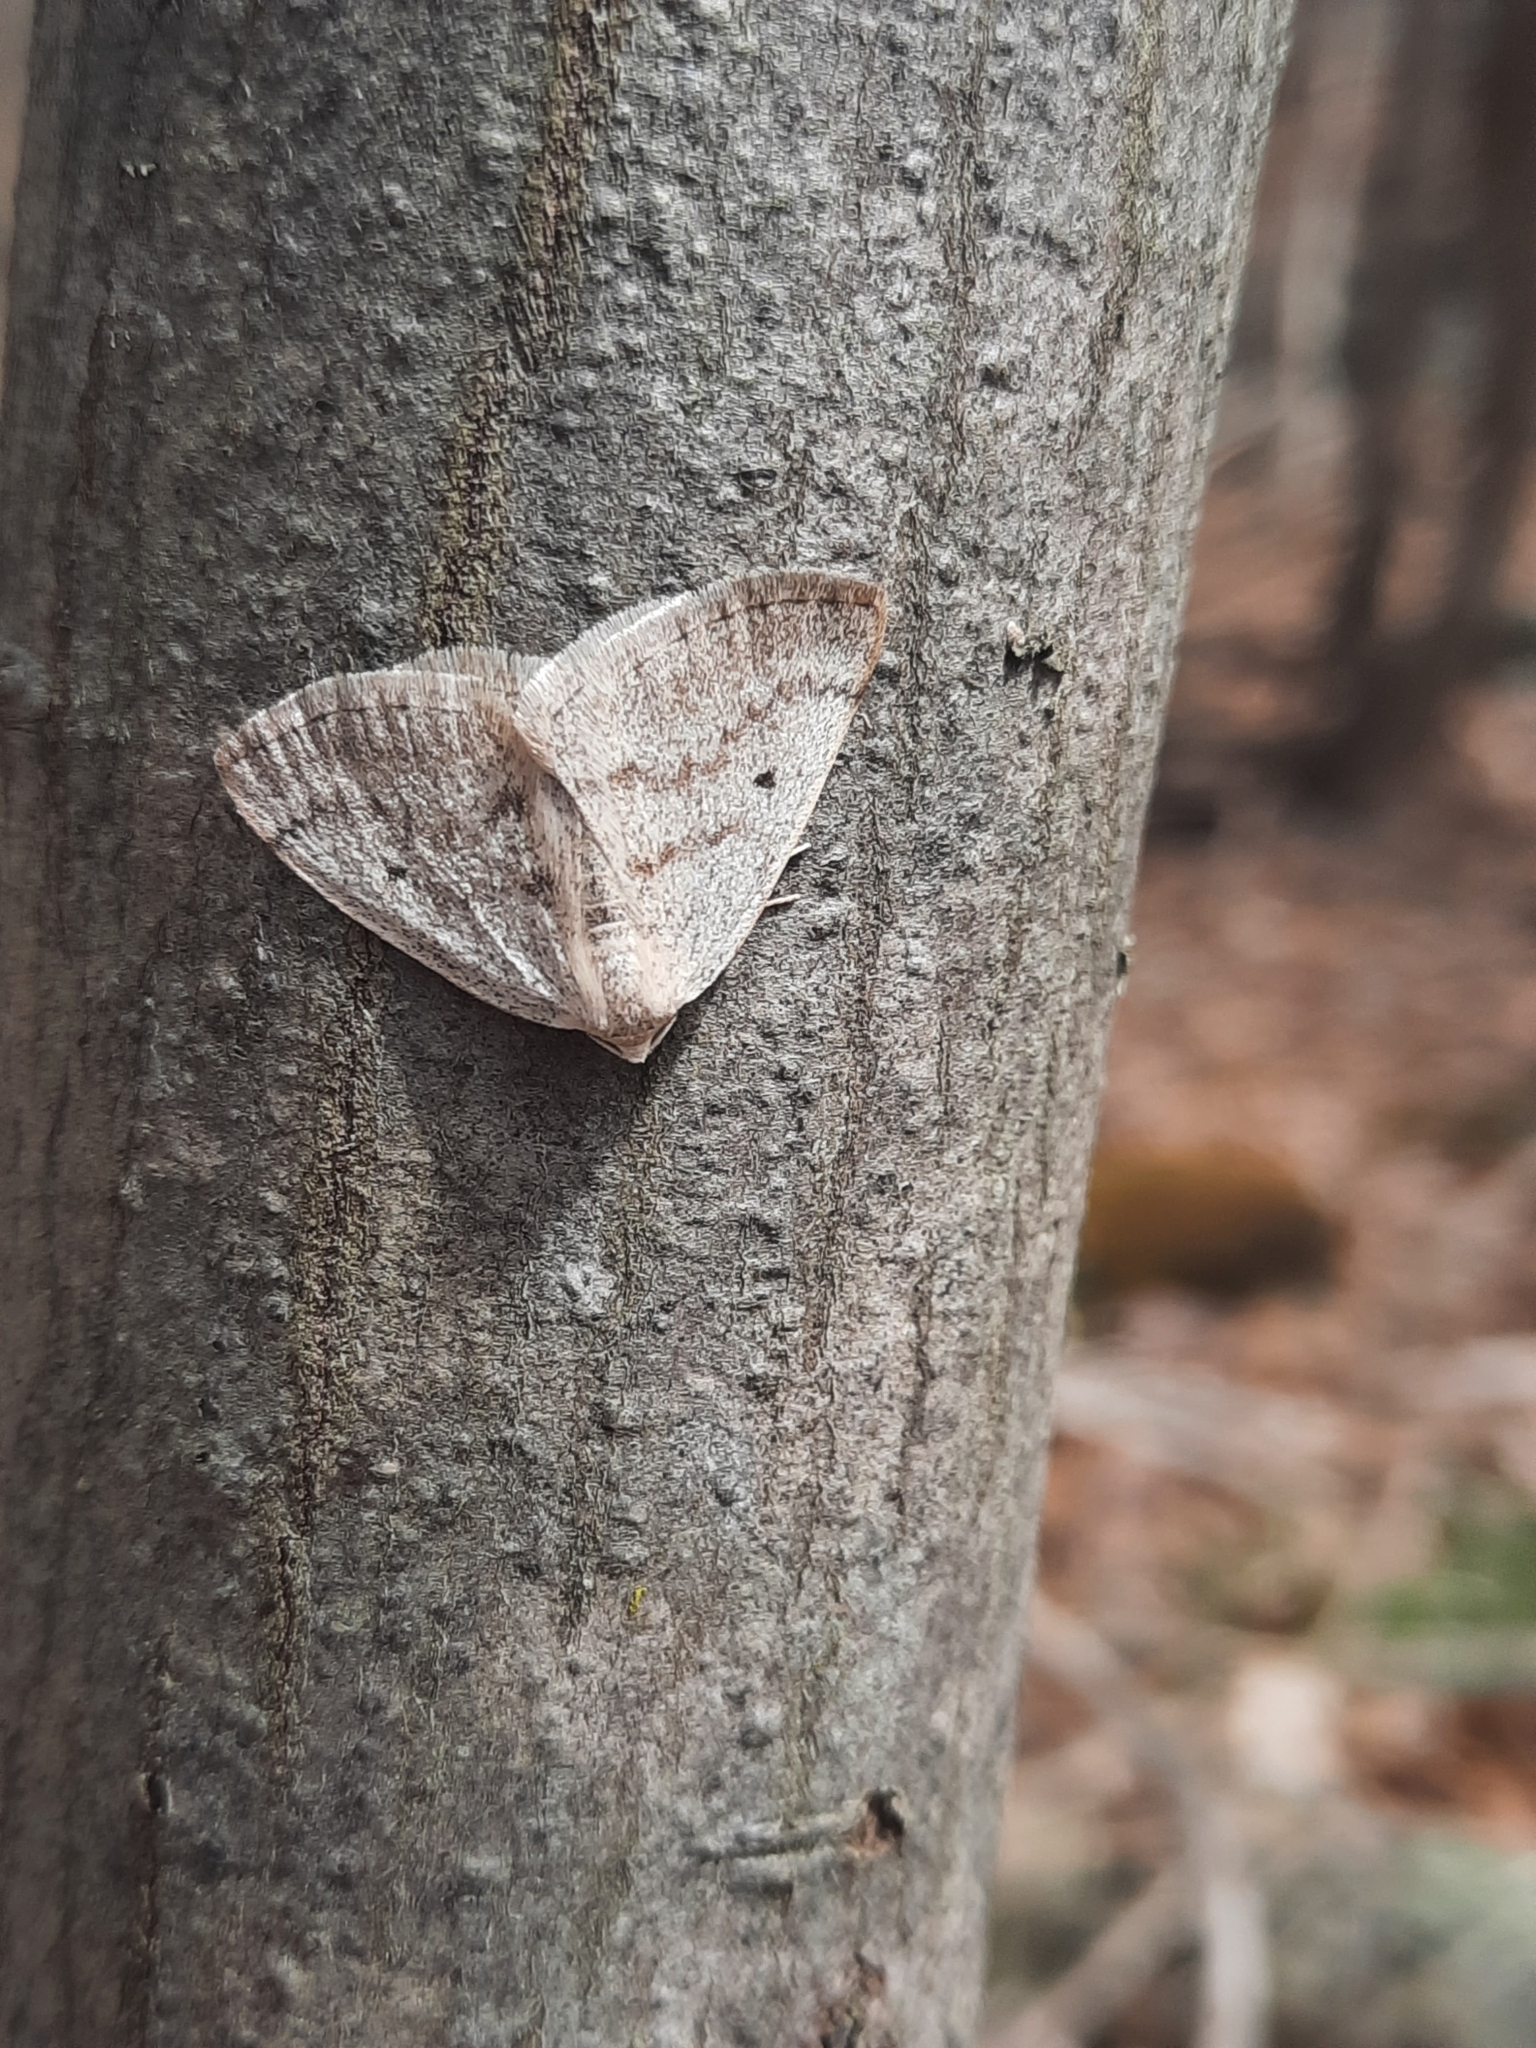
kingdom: Animalia
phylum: Arthropoda
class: Insecta
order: Lepidoptera
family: Geometridae
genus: Lomographa
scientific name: Lomographa glomeraria
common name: Gray spring moth
